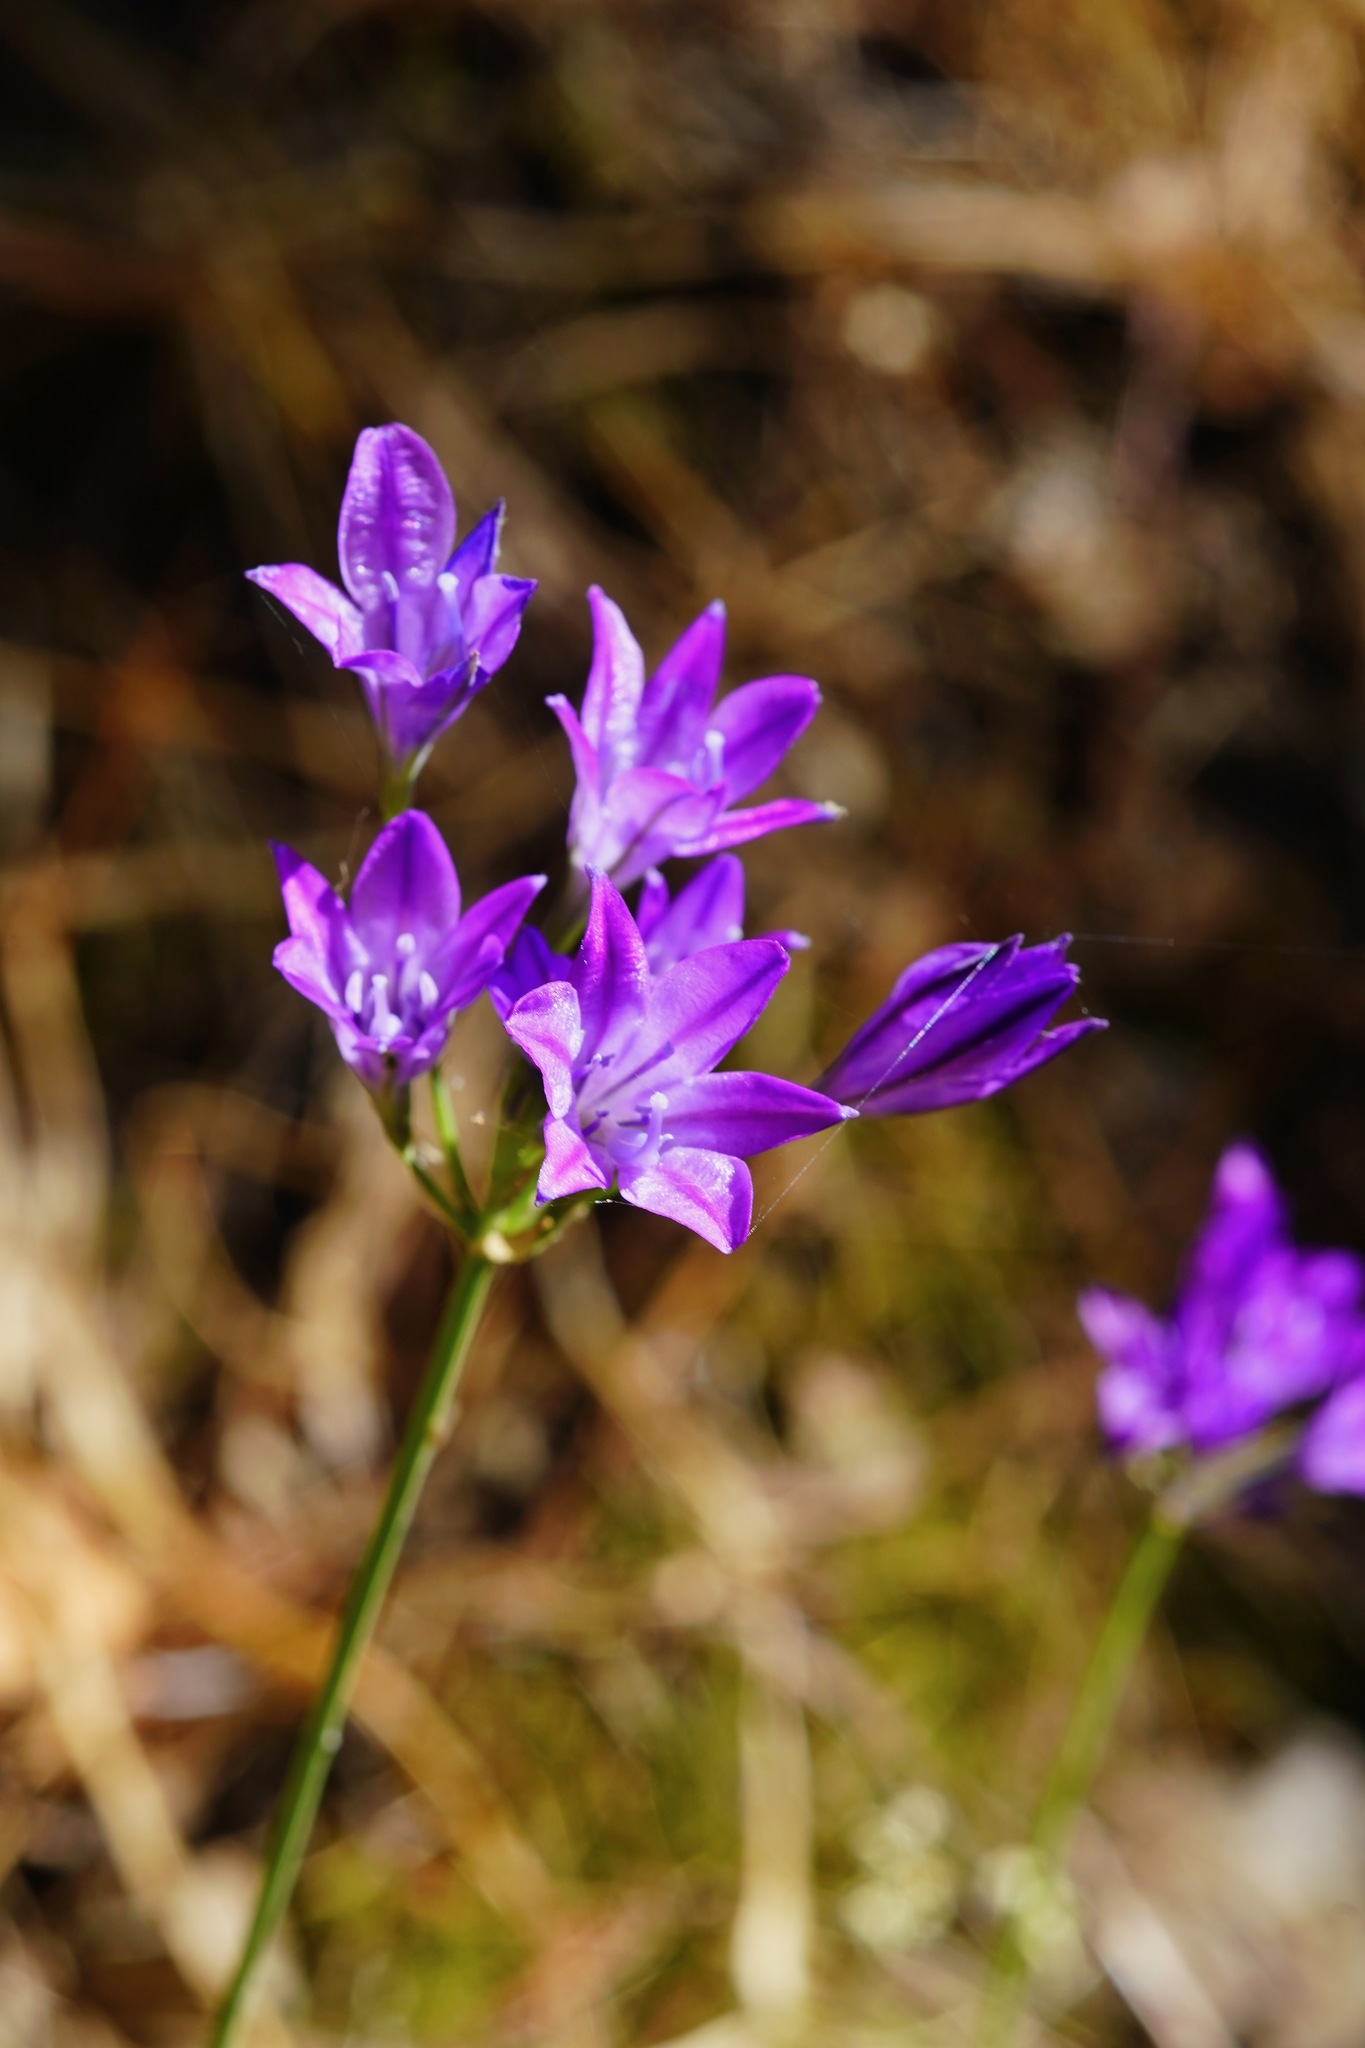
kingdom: Plantae
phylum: Tracheophyta
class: Liliopsida
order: Asparagales
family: Asparagaceae
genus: Triteleia
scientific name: Triteleia laxa
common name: Triplet-lily
